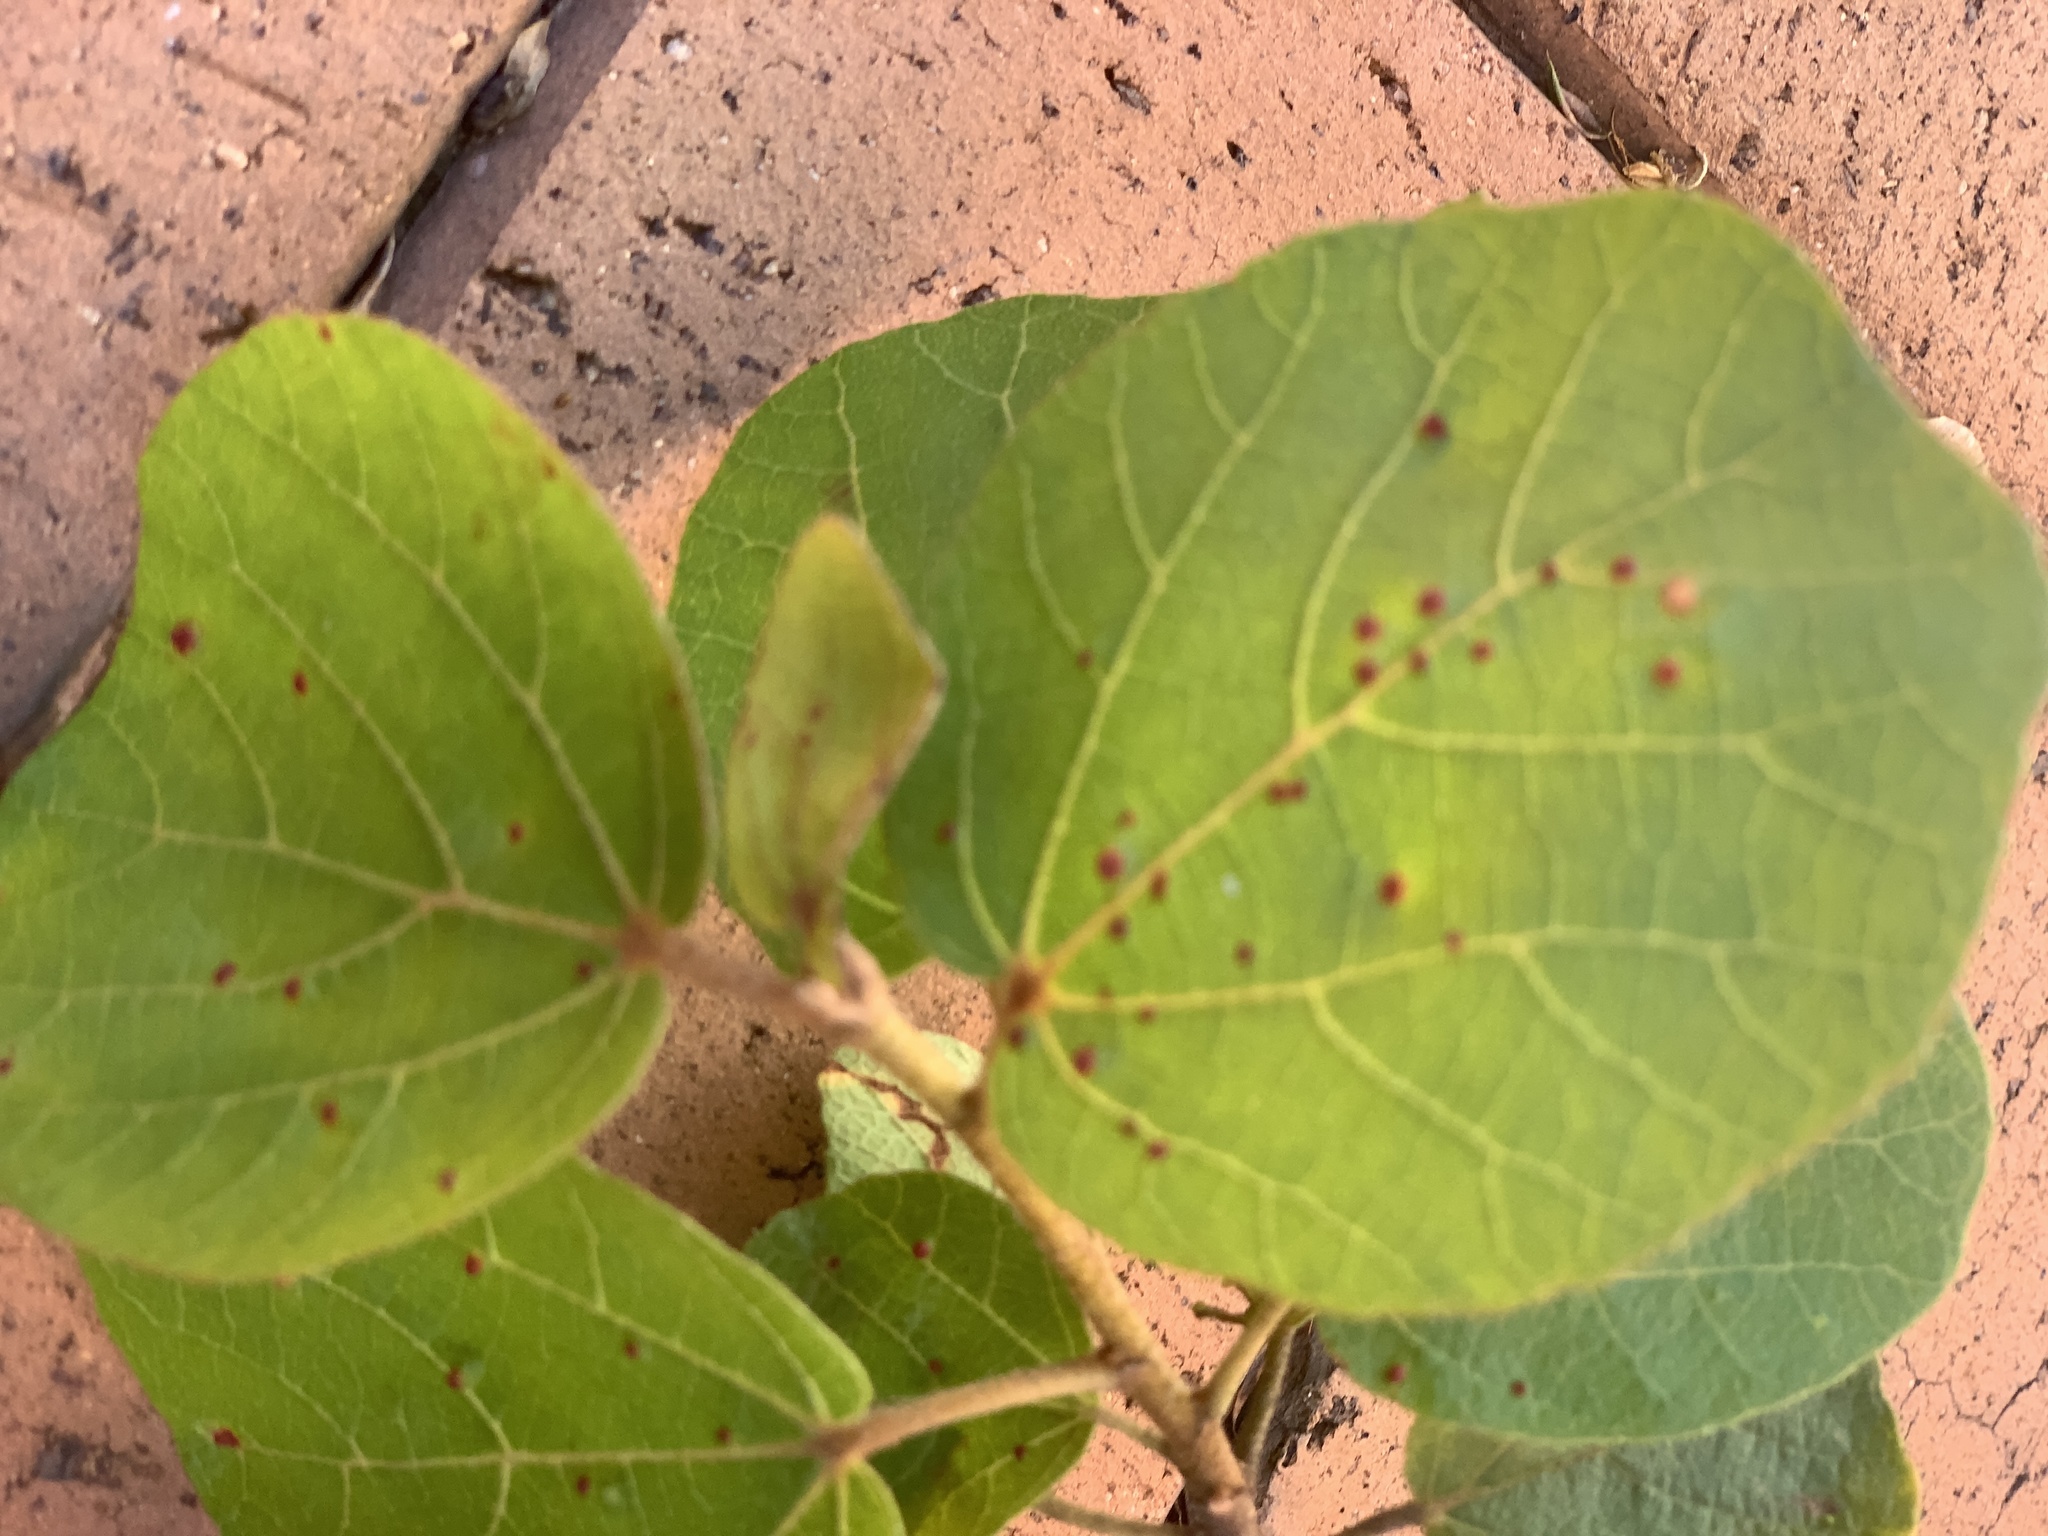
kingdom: Animalia
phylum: Arthropoda
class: Arachnida
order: Trombidiformes
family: Eriophyidae
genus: Aceria
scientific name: Aceria
